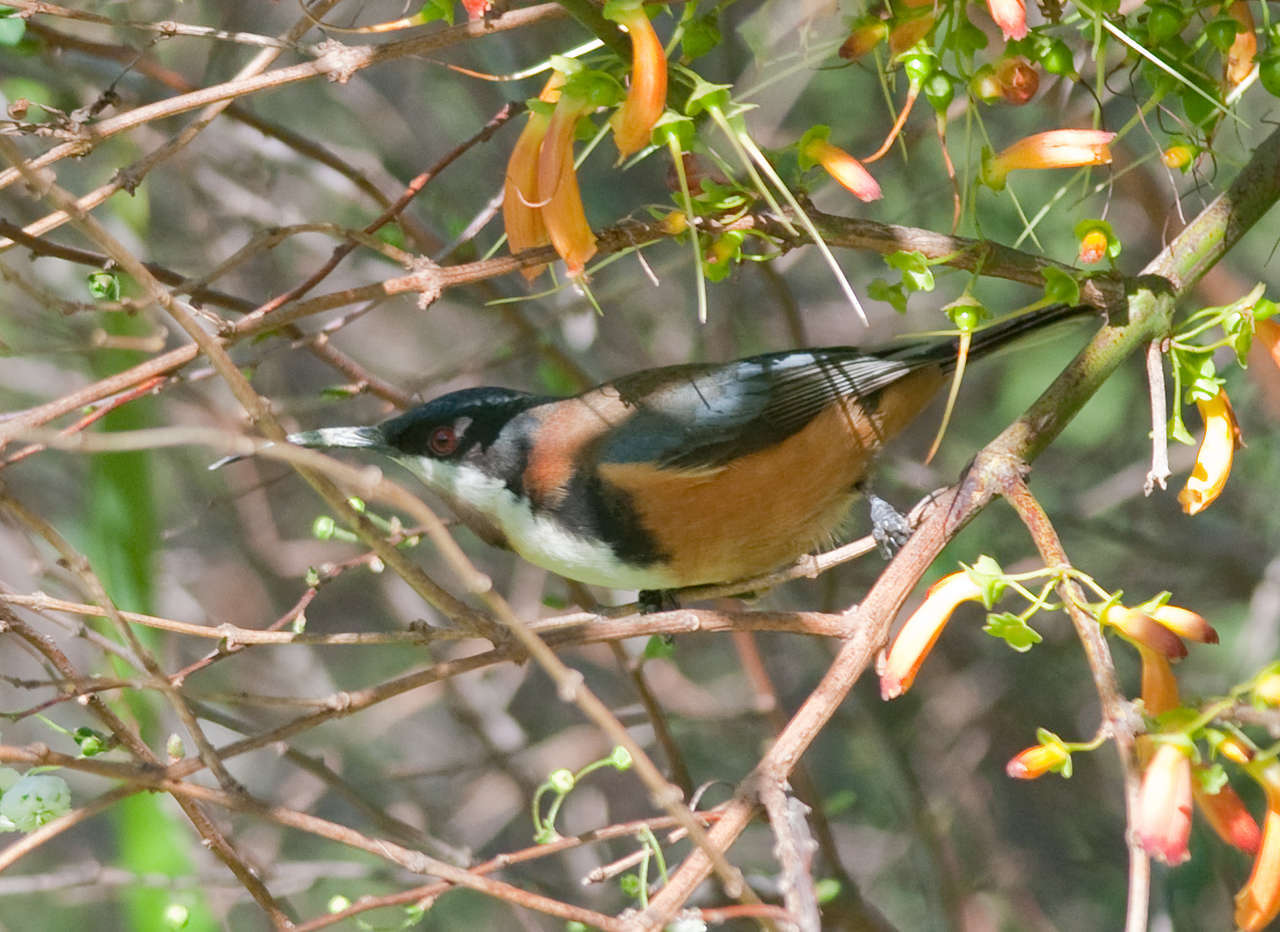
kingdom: Animalia
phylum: Chordata
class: Aves
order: Passeriformes
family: Meliphagidae
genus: Acanthorhynchus
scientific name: Acanthorhynchus tenuirostris
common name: Eastern spinebill
